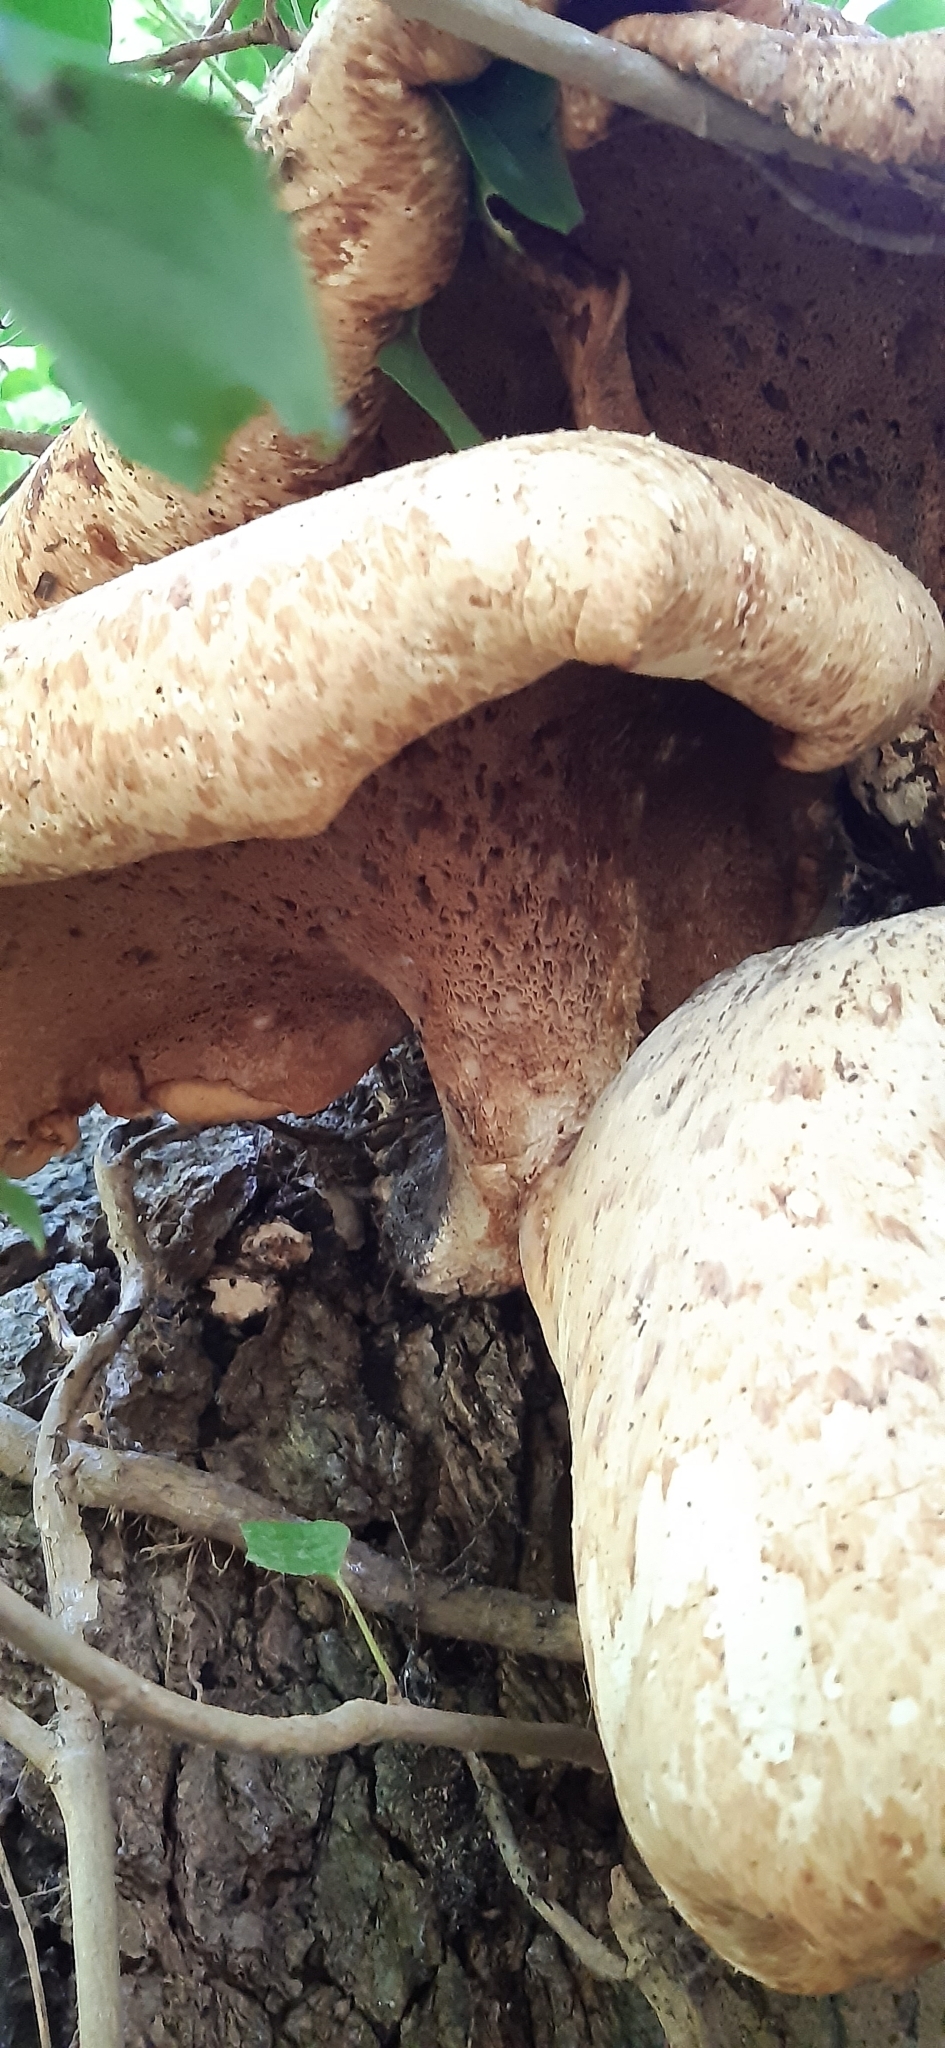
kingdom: Fungi
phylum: Basidiomycota
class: Agaricomycetes
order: Polyporales
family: Polyporaceae
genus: Cerioporus
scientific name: Cerioporus squamosus
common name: Dryad's saddle
